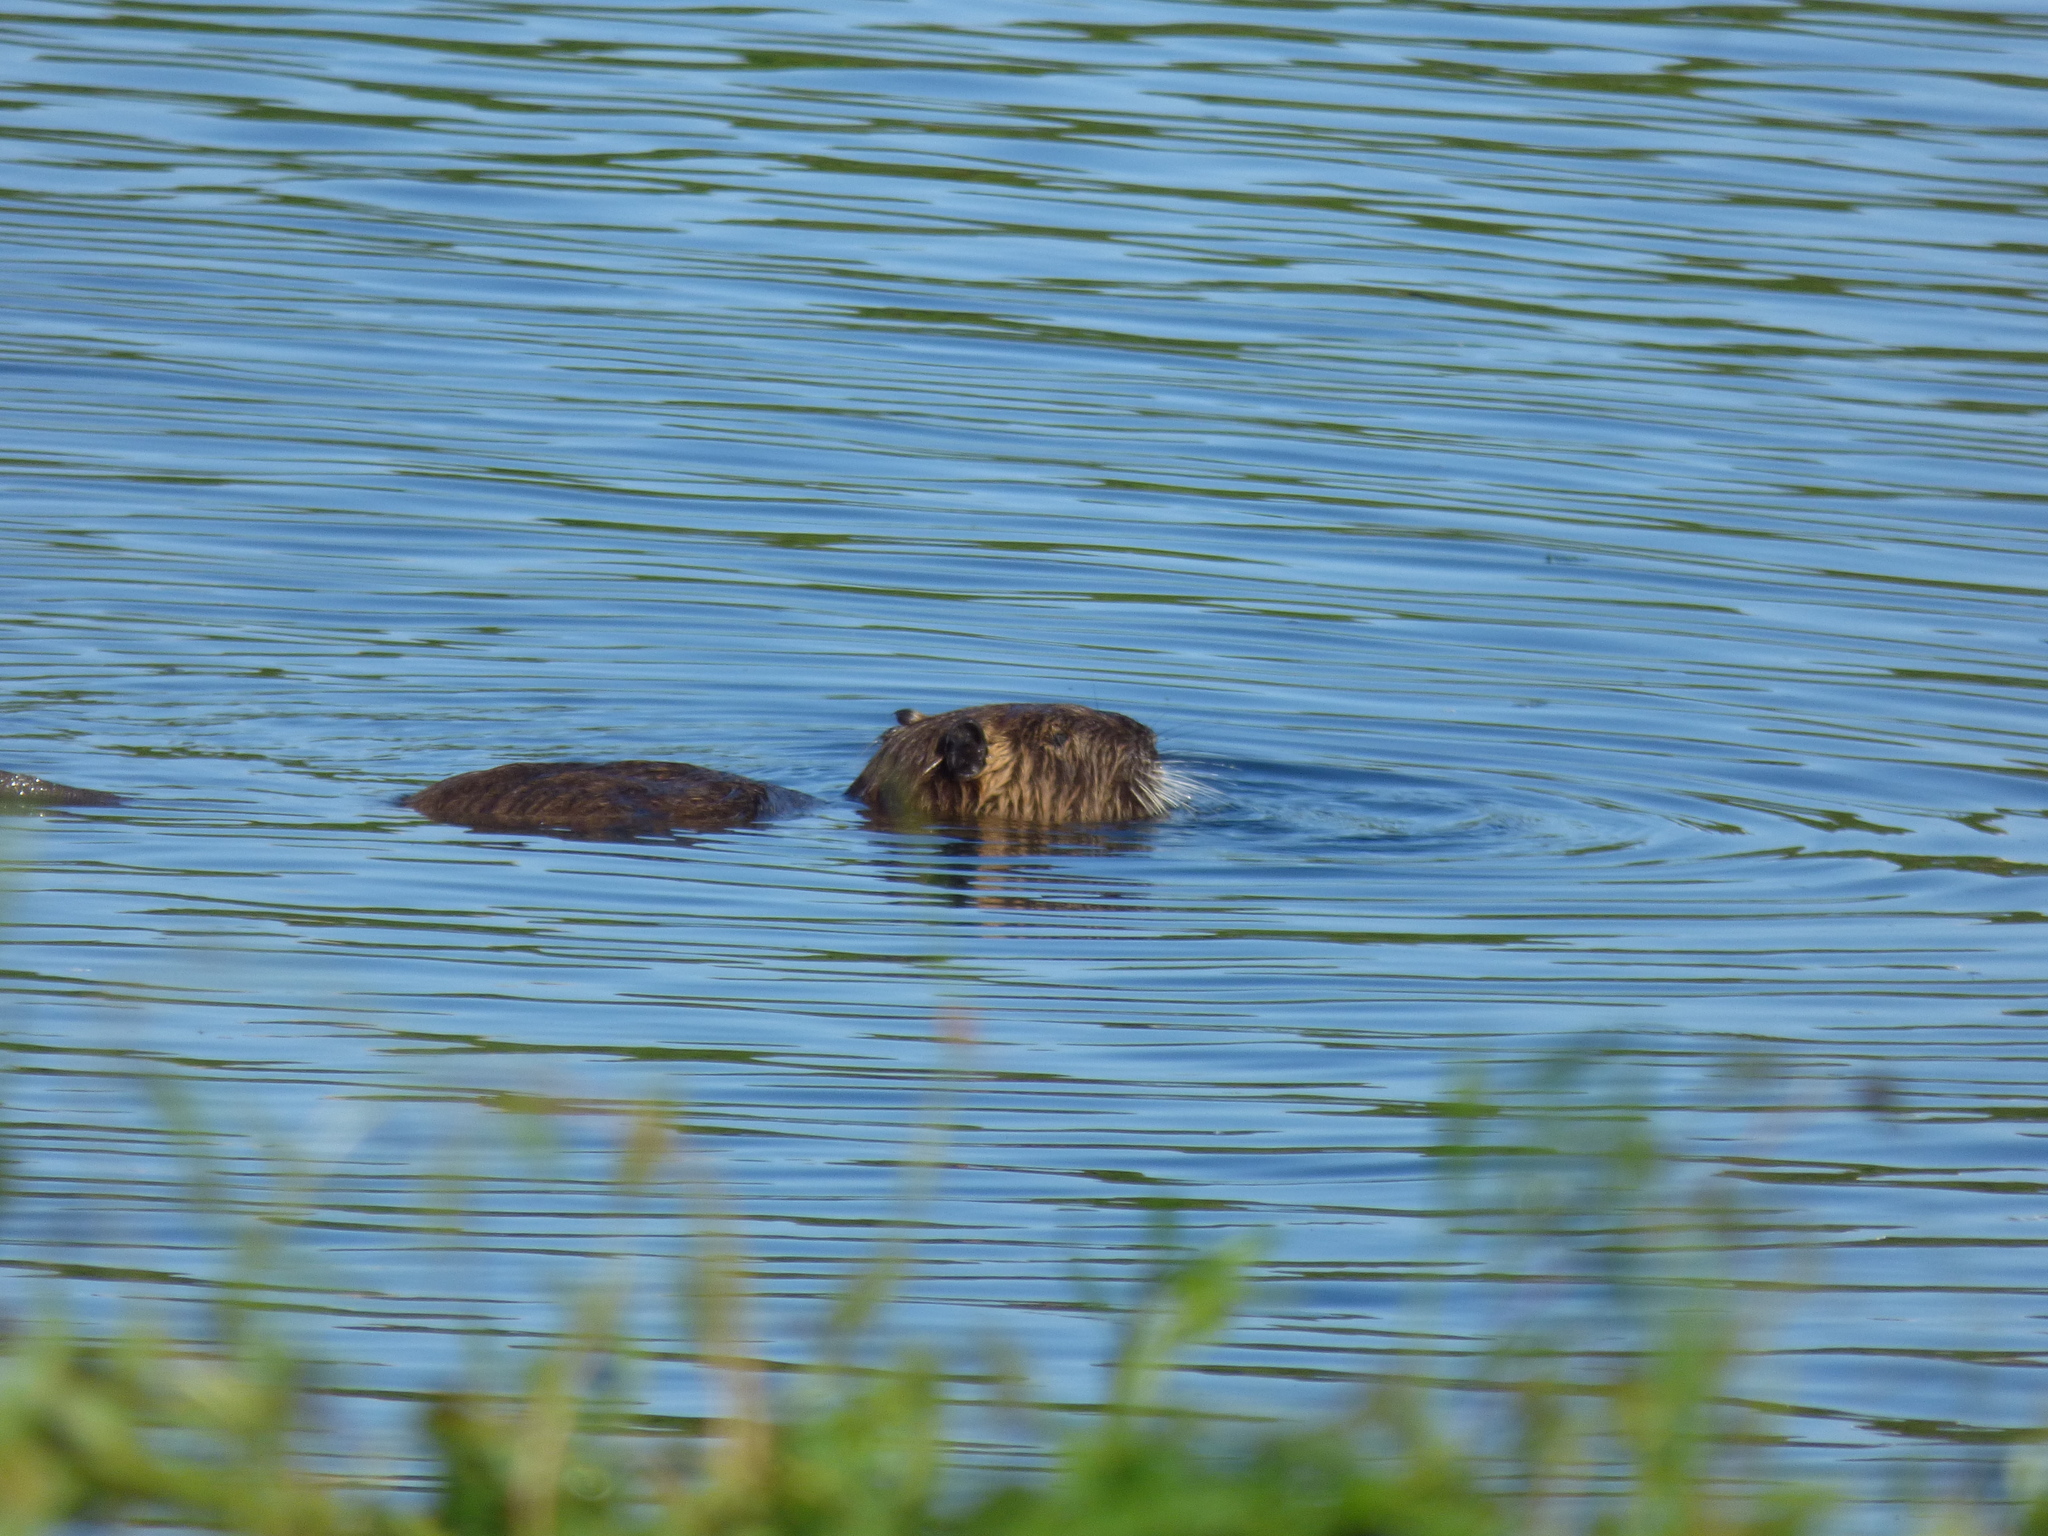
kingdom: Animalia
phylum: Chordata
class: Mammalia
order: Rodentia
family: Myocastoridae
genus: Myocastor
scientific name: Myocastor coypus
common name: Coypu
